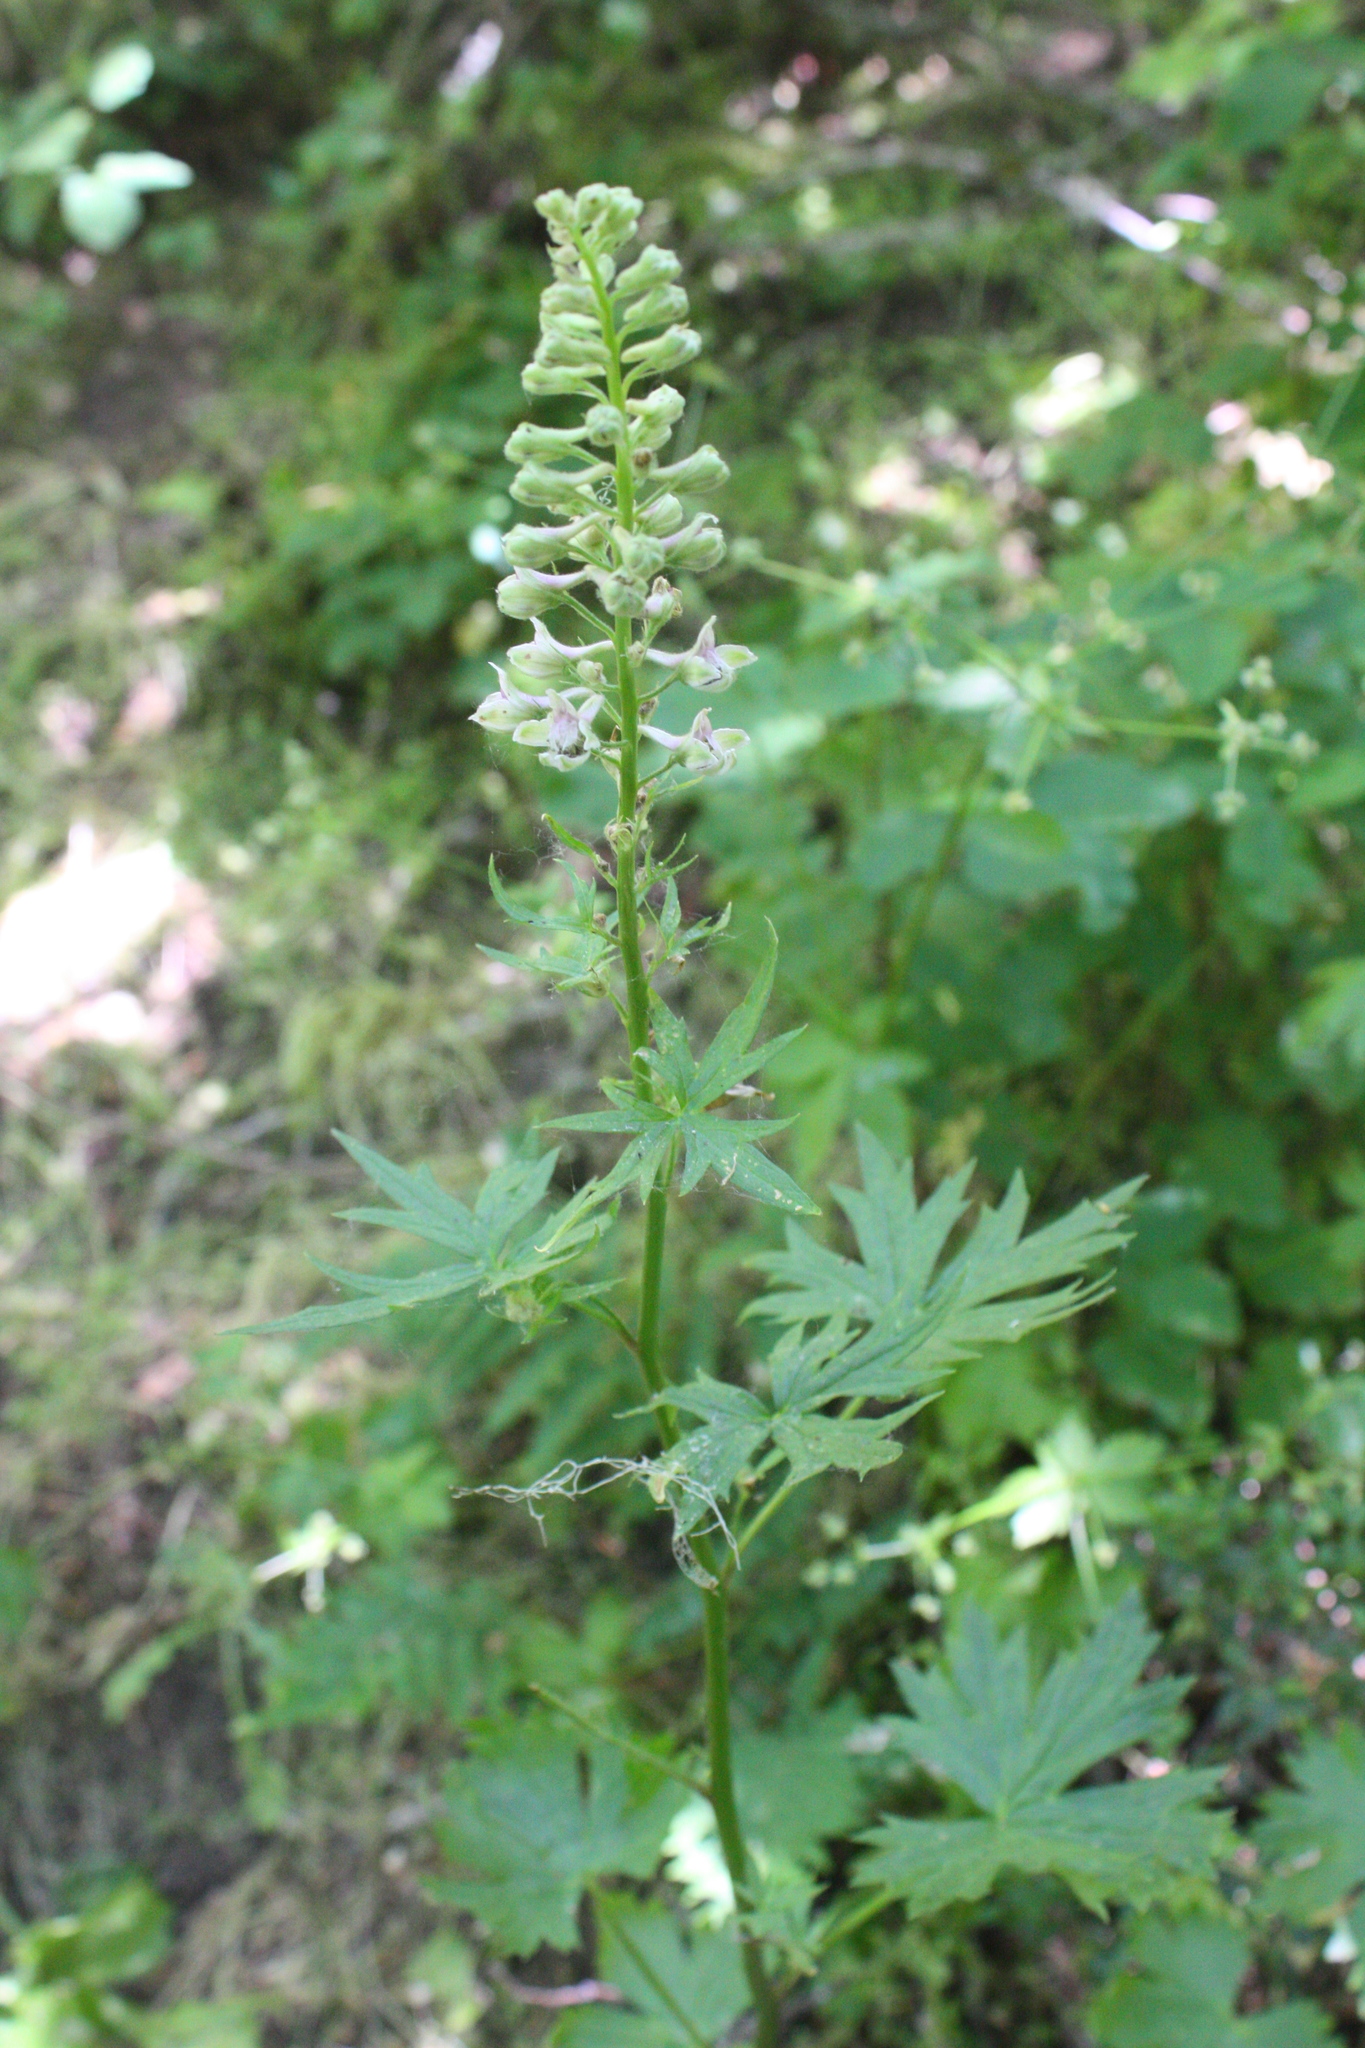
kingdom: Plantae
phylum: Tracheophyta
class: Magnoliopsida
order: Ranunculales
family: Ranunculaceae
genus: Delphinium
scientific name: Delphinium californicum
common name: California larkspur
